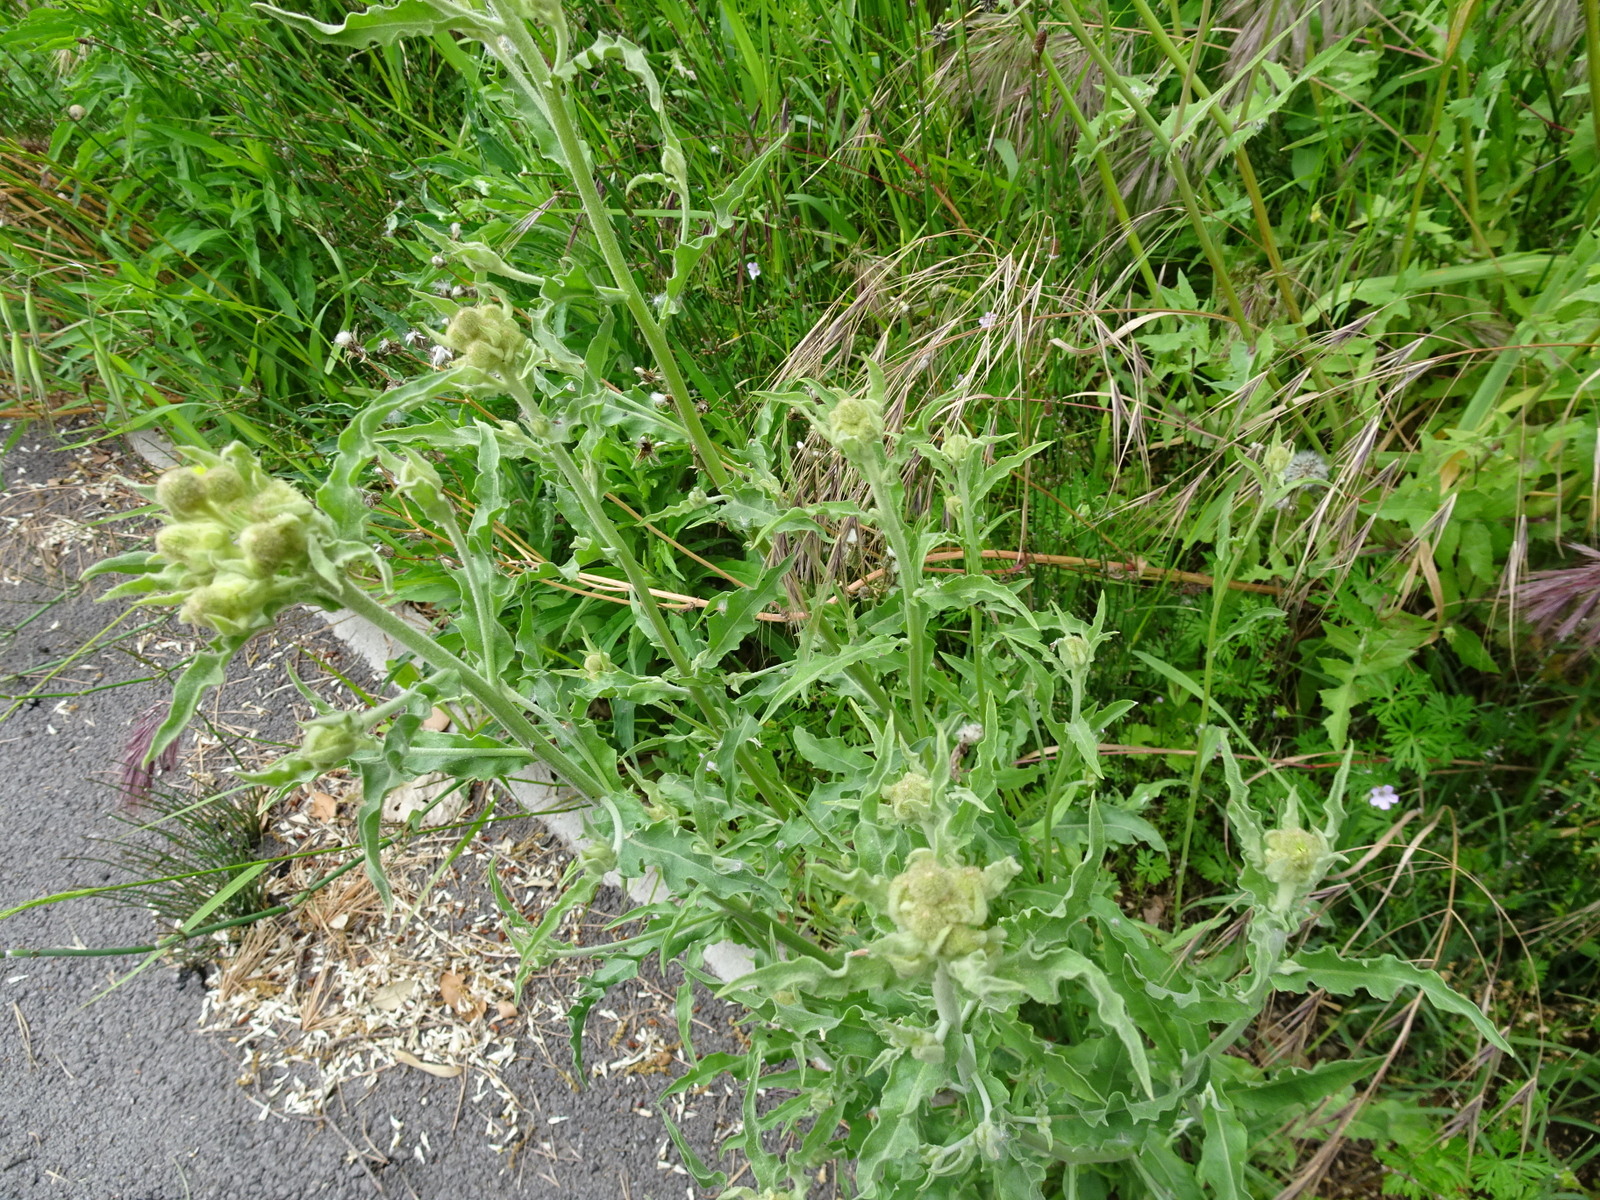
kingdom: Plantae
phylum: Tracheophyta
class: Magnoliopsida
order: Asterales
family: Asteraceae
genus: Andryala
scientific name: Andryala integrifolia
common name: Common andryala
